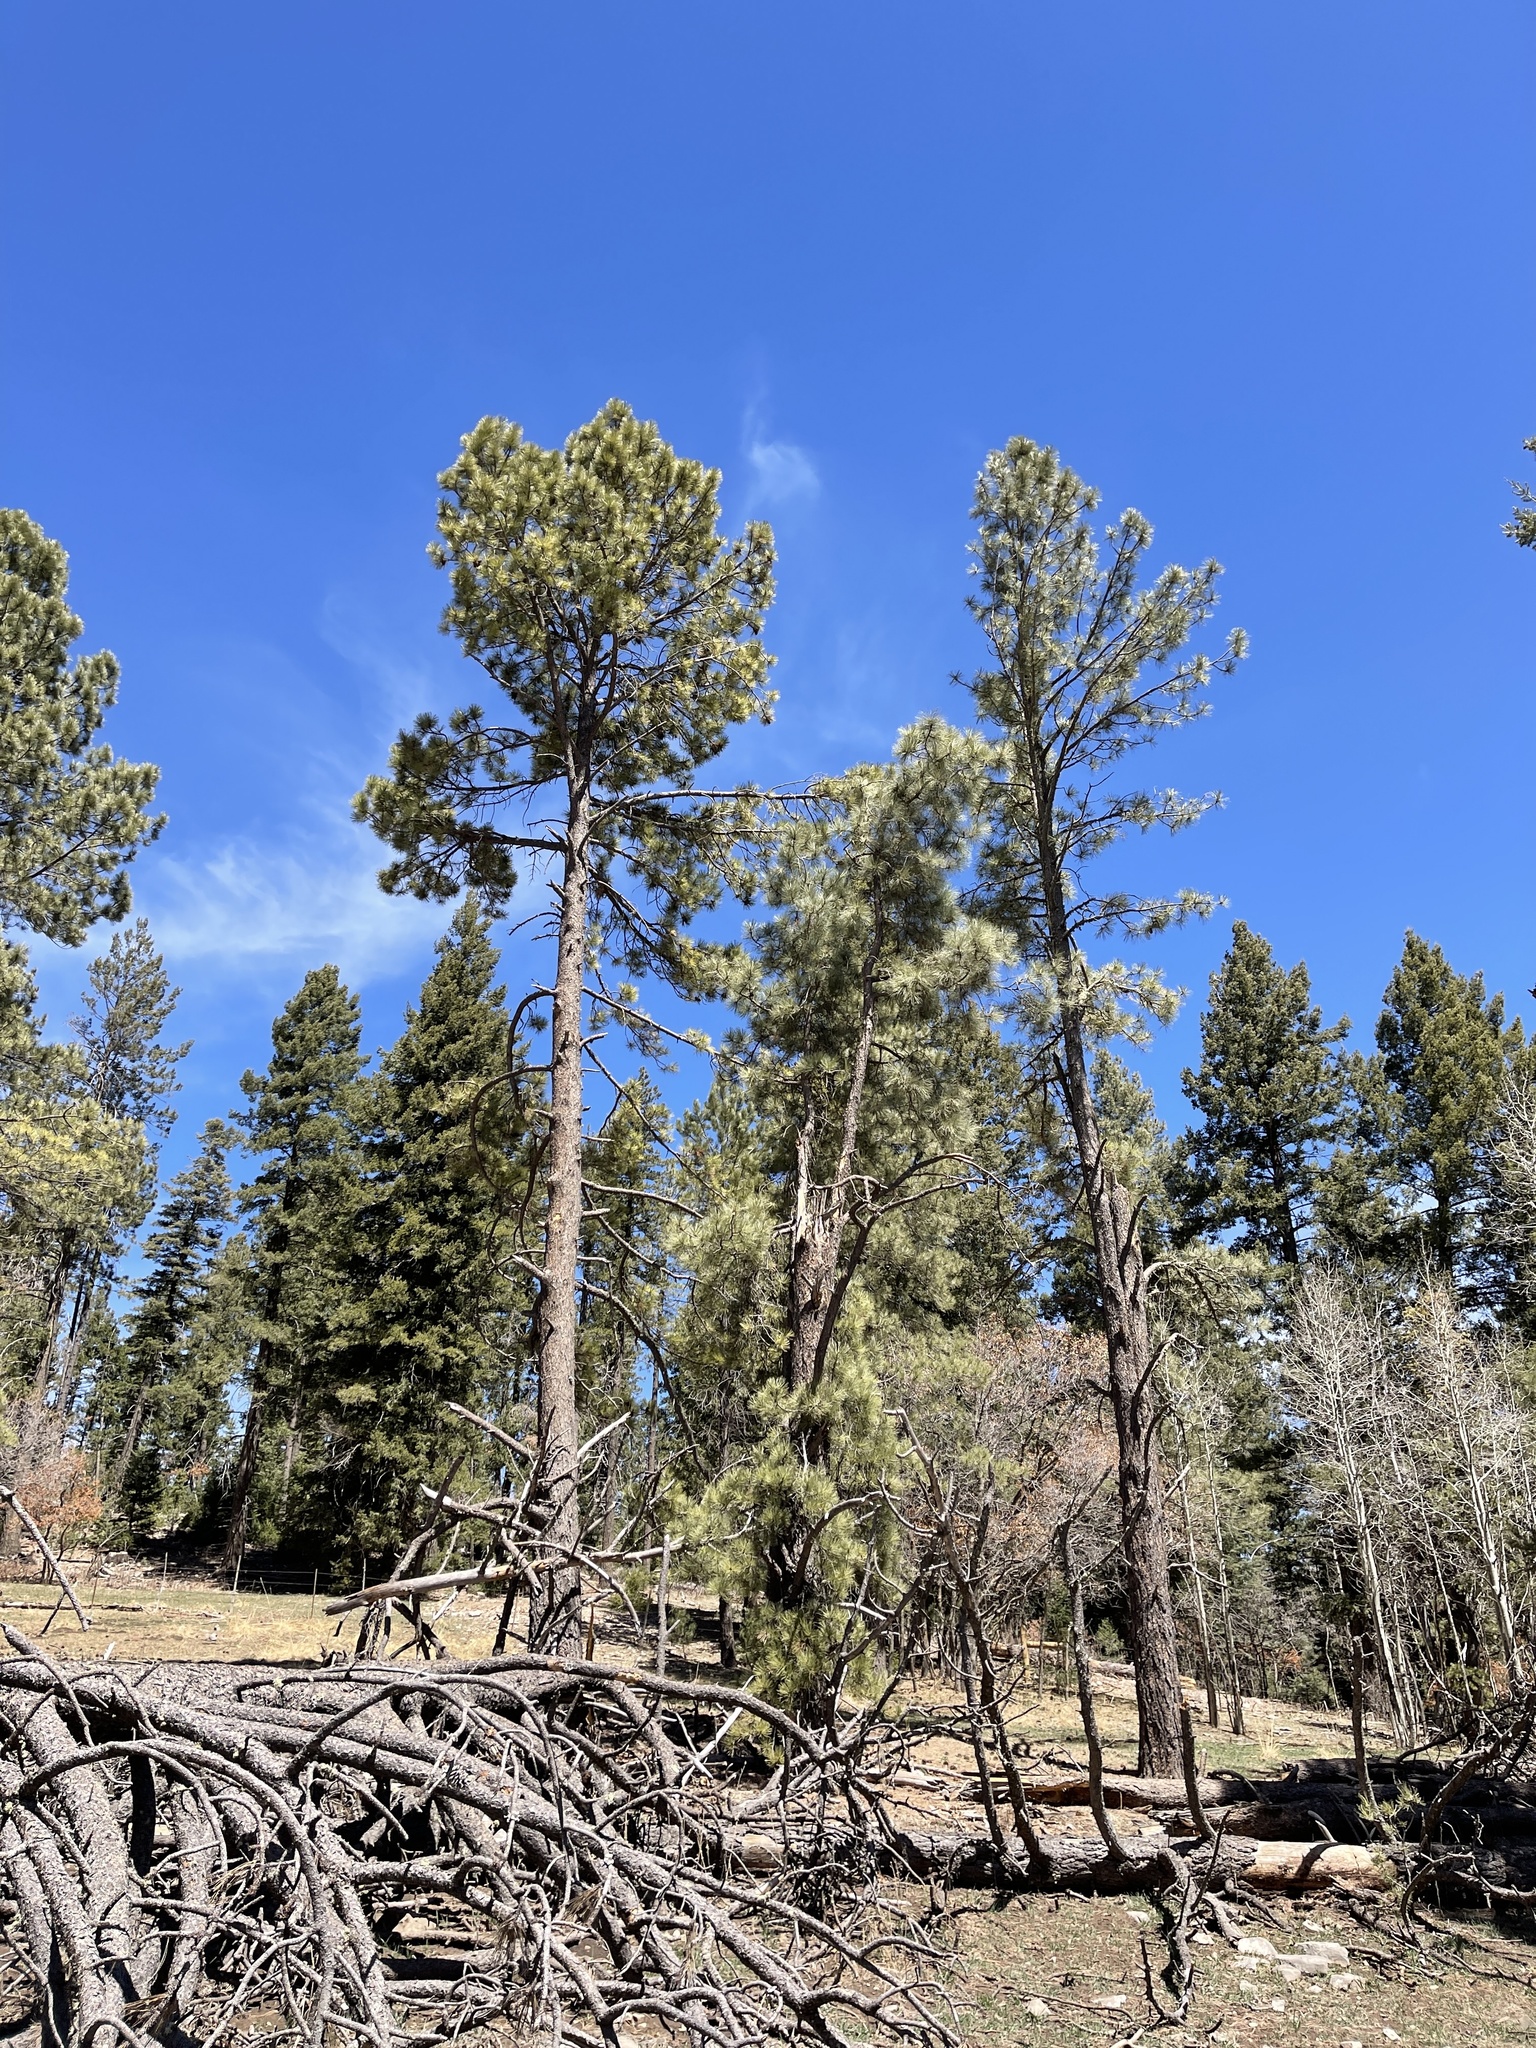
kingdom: Plantae
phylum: Tracheophyta
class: Pinopsida
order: Pinales
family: Pinaceae
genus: Pinus
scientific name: Pinus ponderosa
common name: Western yellow-pine
